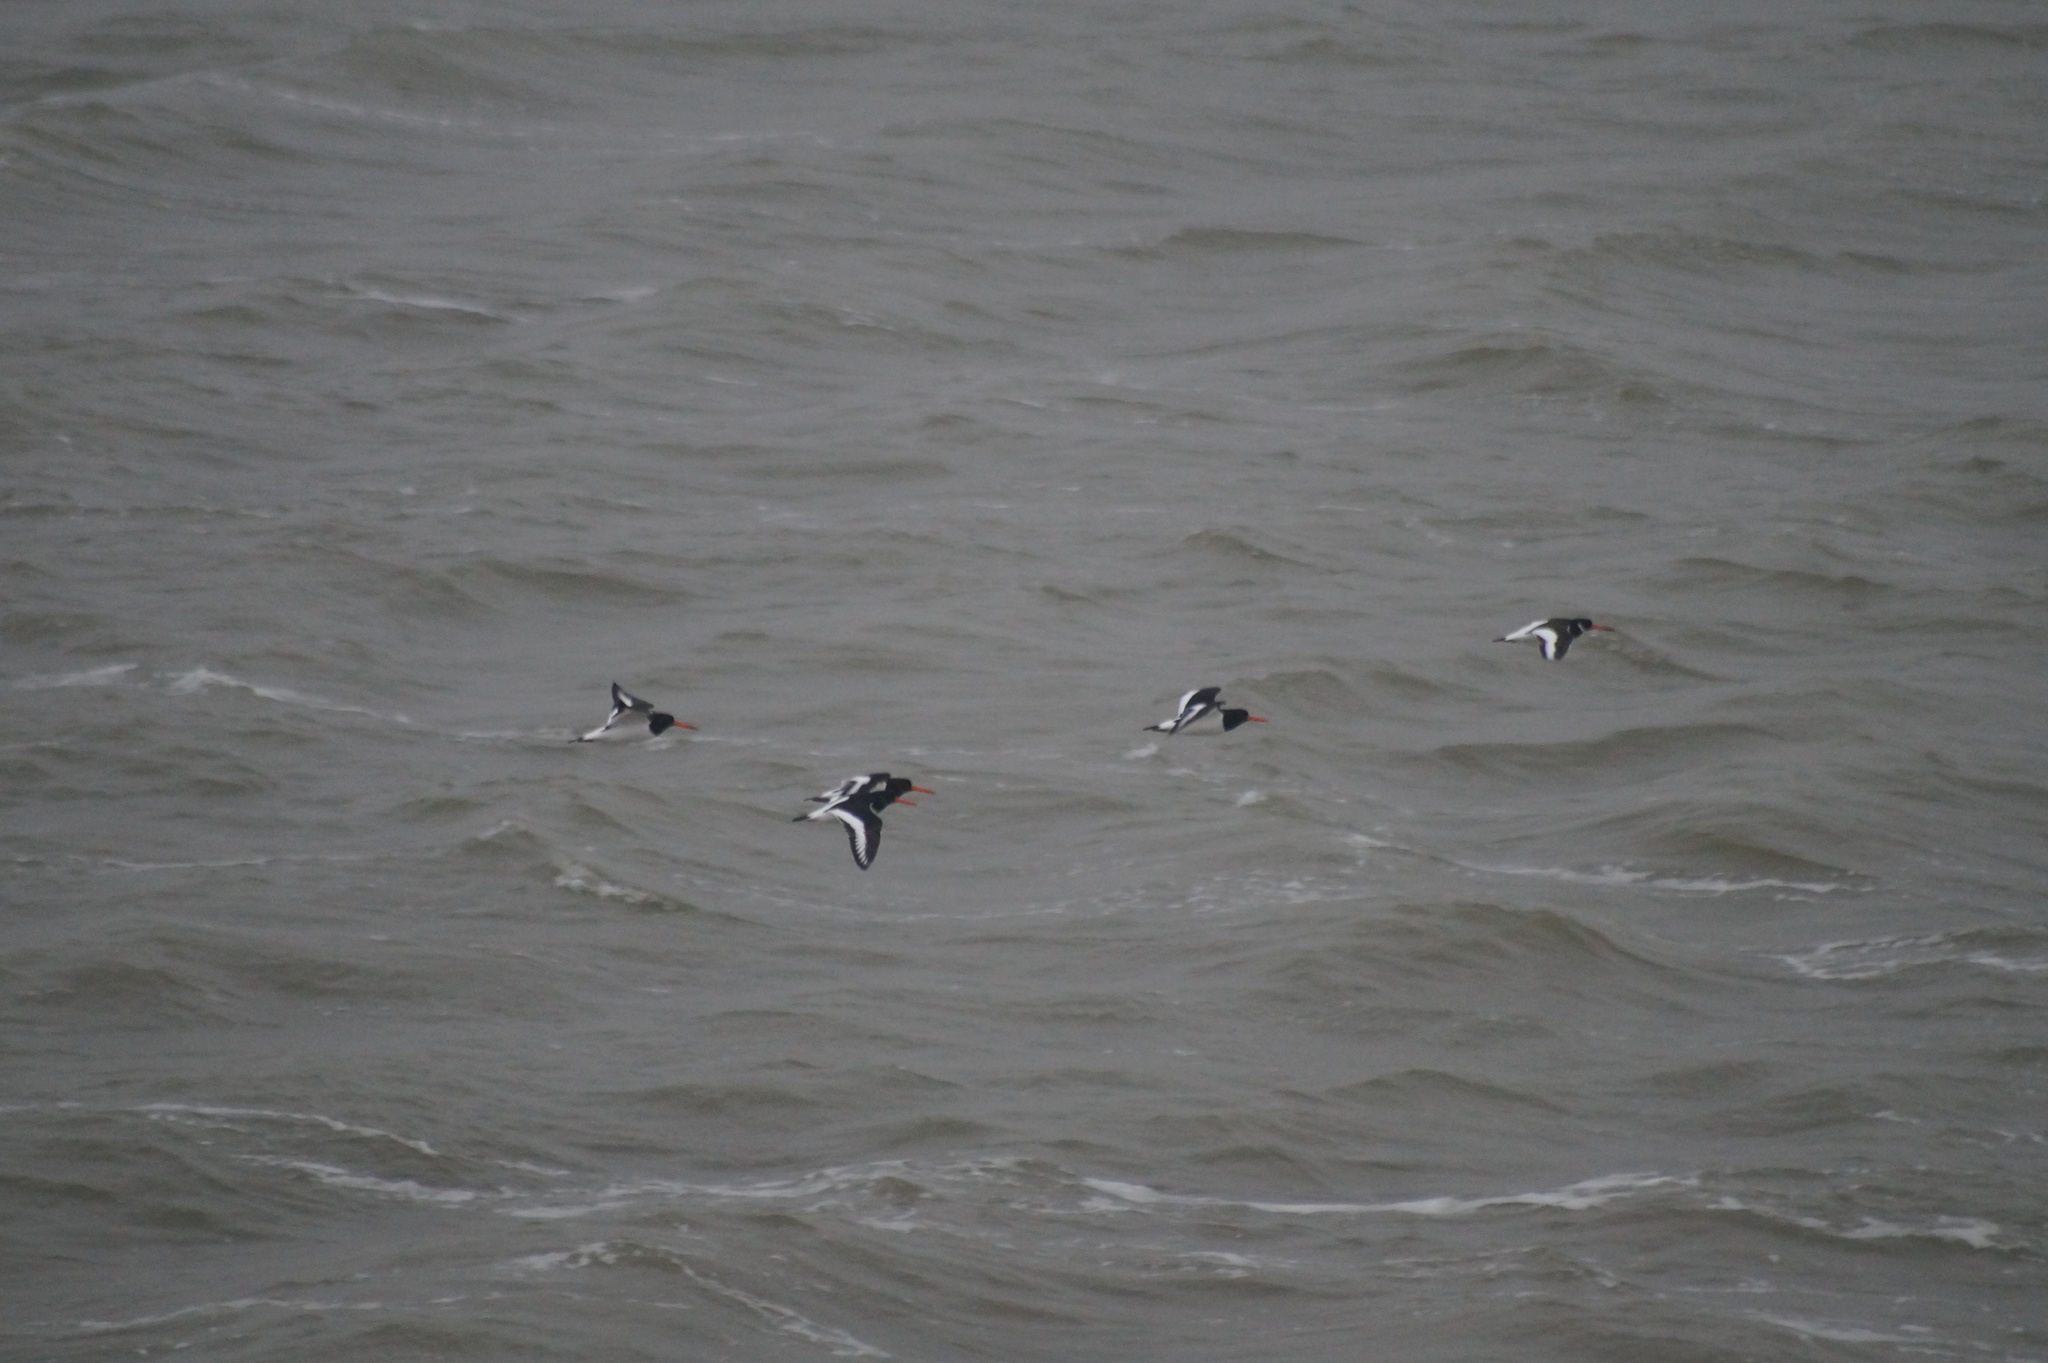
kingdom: Animalia
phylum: Chordata
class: Aves
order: Charadriiformes
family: Haematopodidae
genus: Haematopus
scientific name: Haematopus ostralegus
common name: Eurasian oystercatcher
